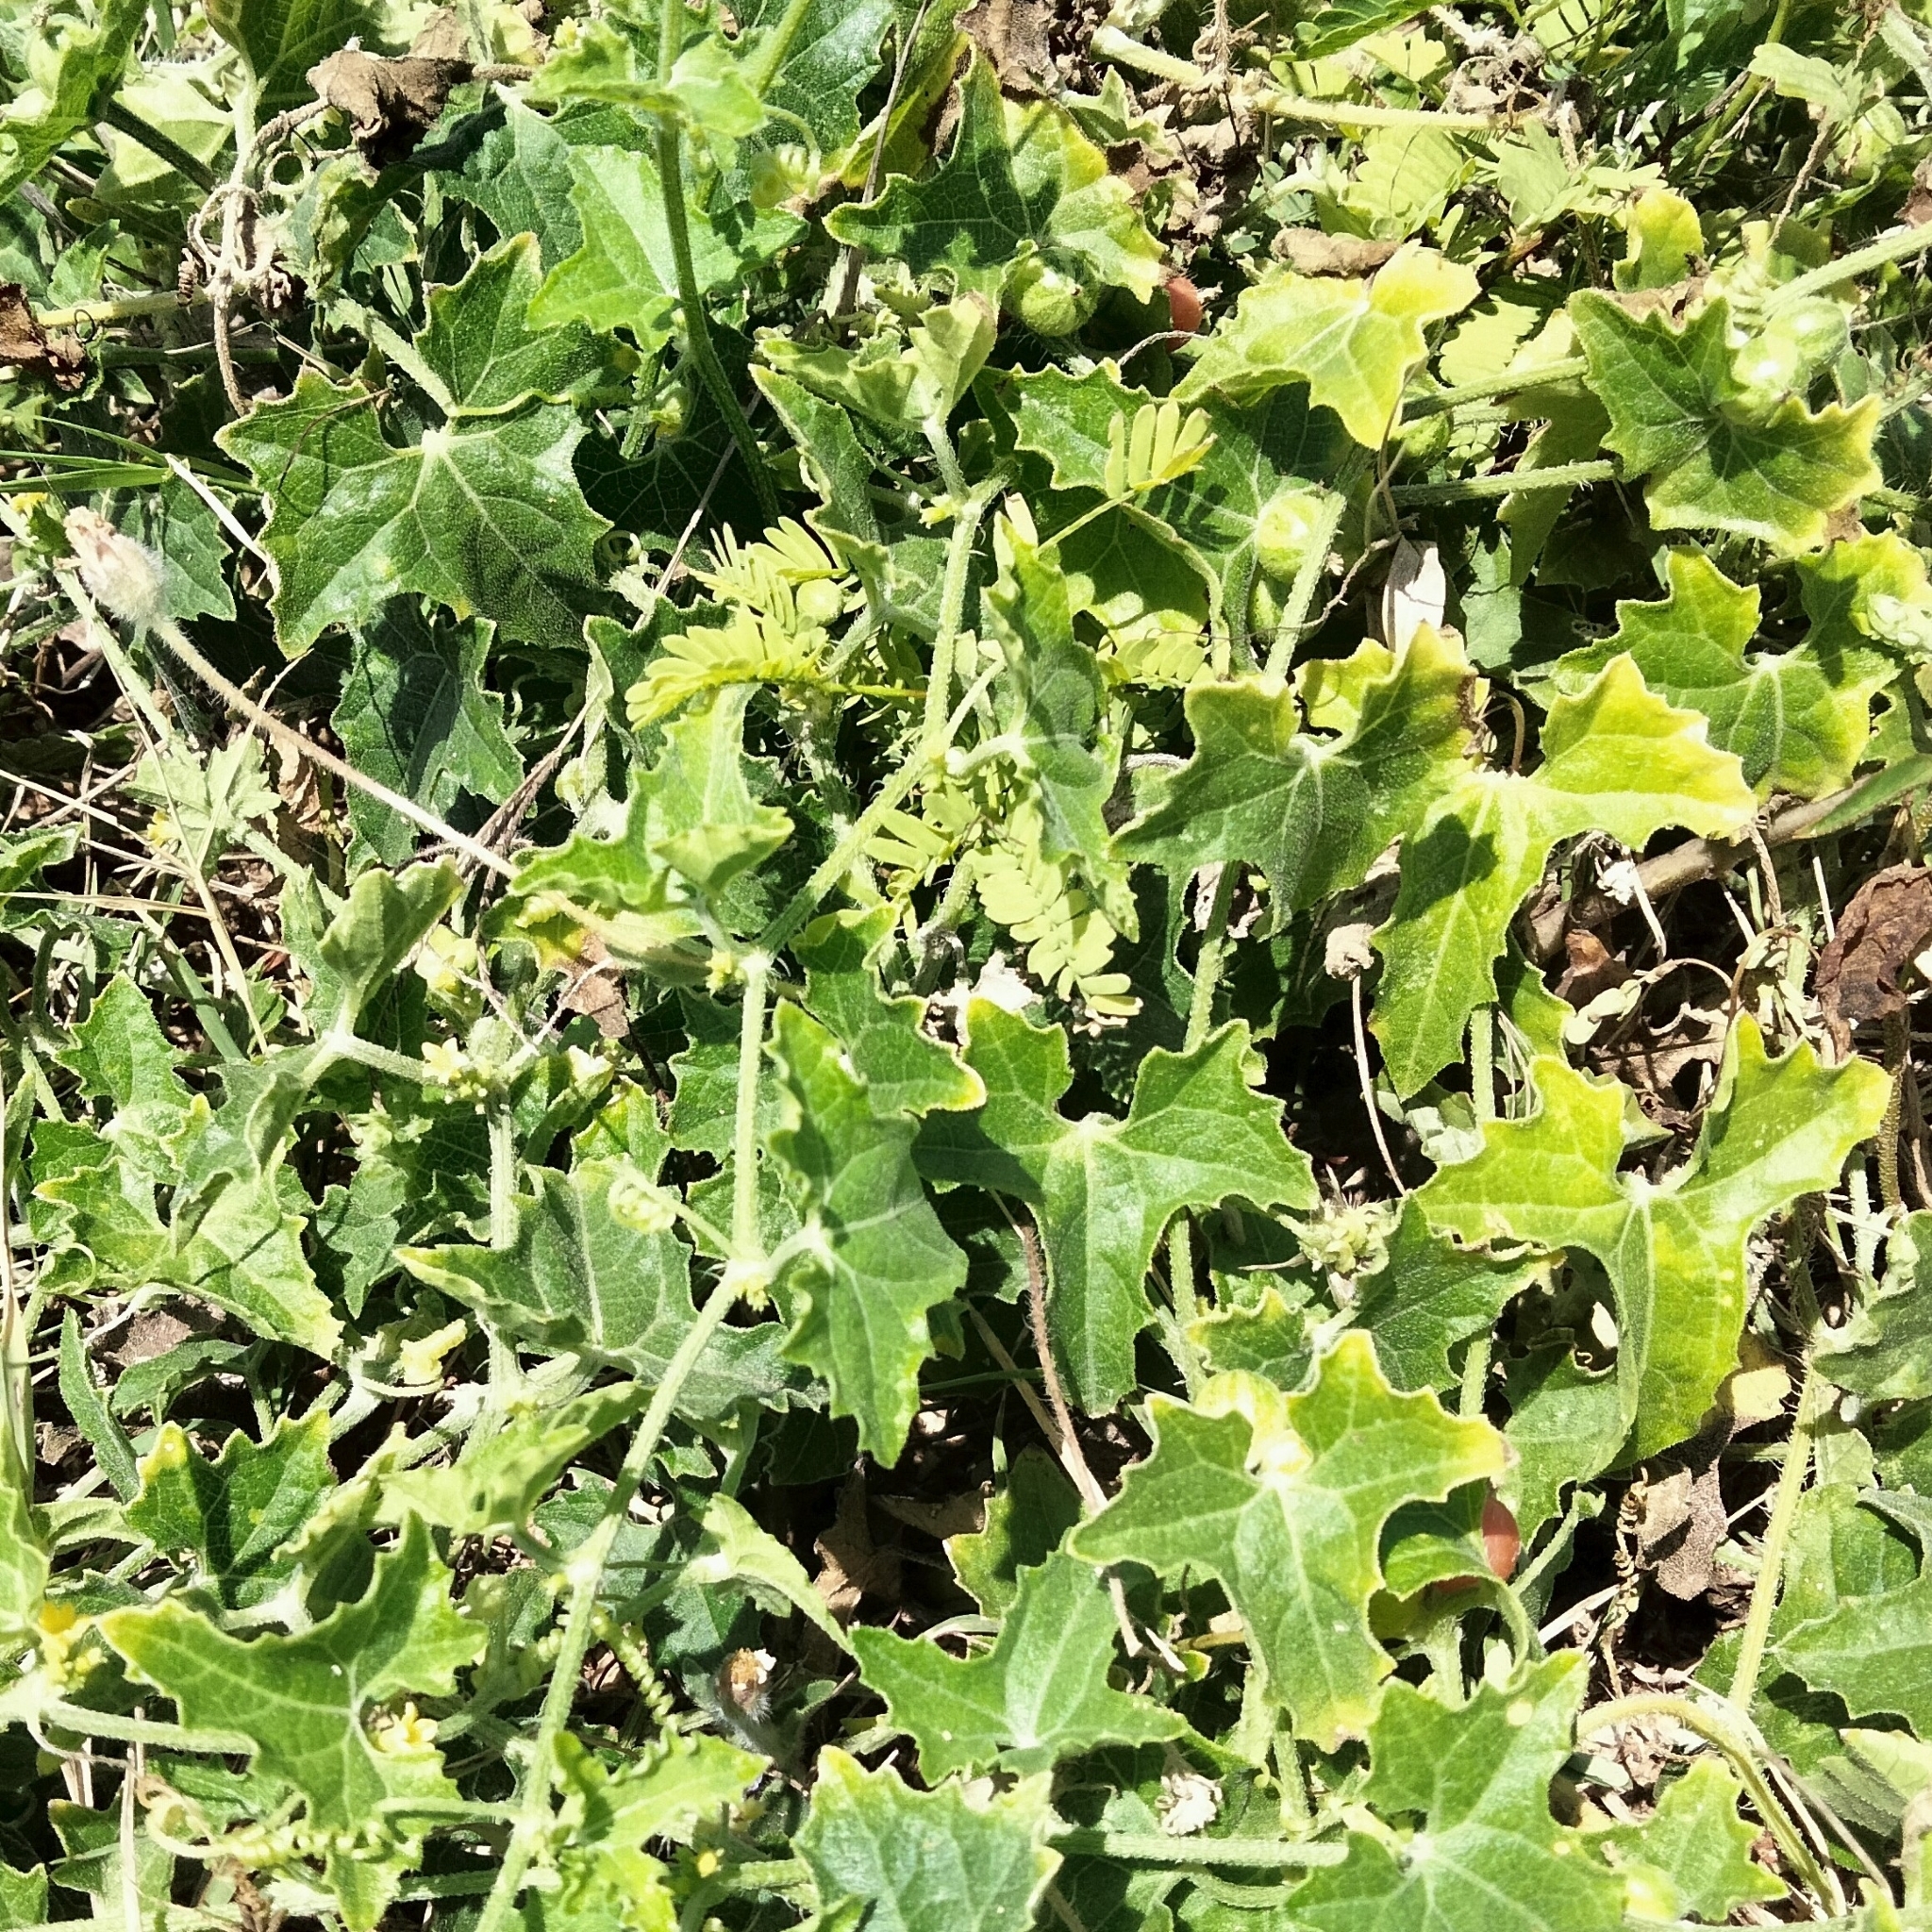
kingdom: Plantae
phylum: Tracheophyta
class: Magnoliopsida
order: Cucurbitales
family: Cucurbitaceae
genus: Cucumis
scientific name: Cucumis maderaspatanus
